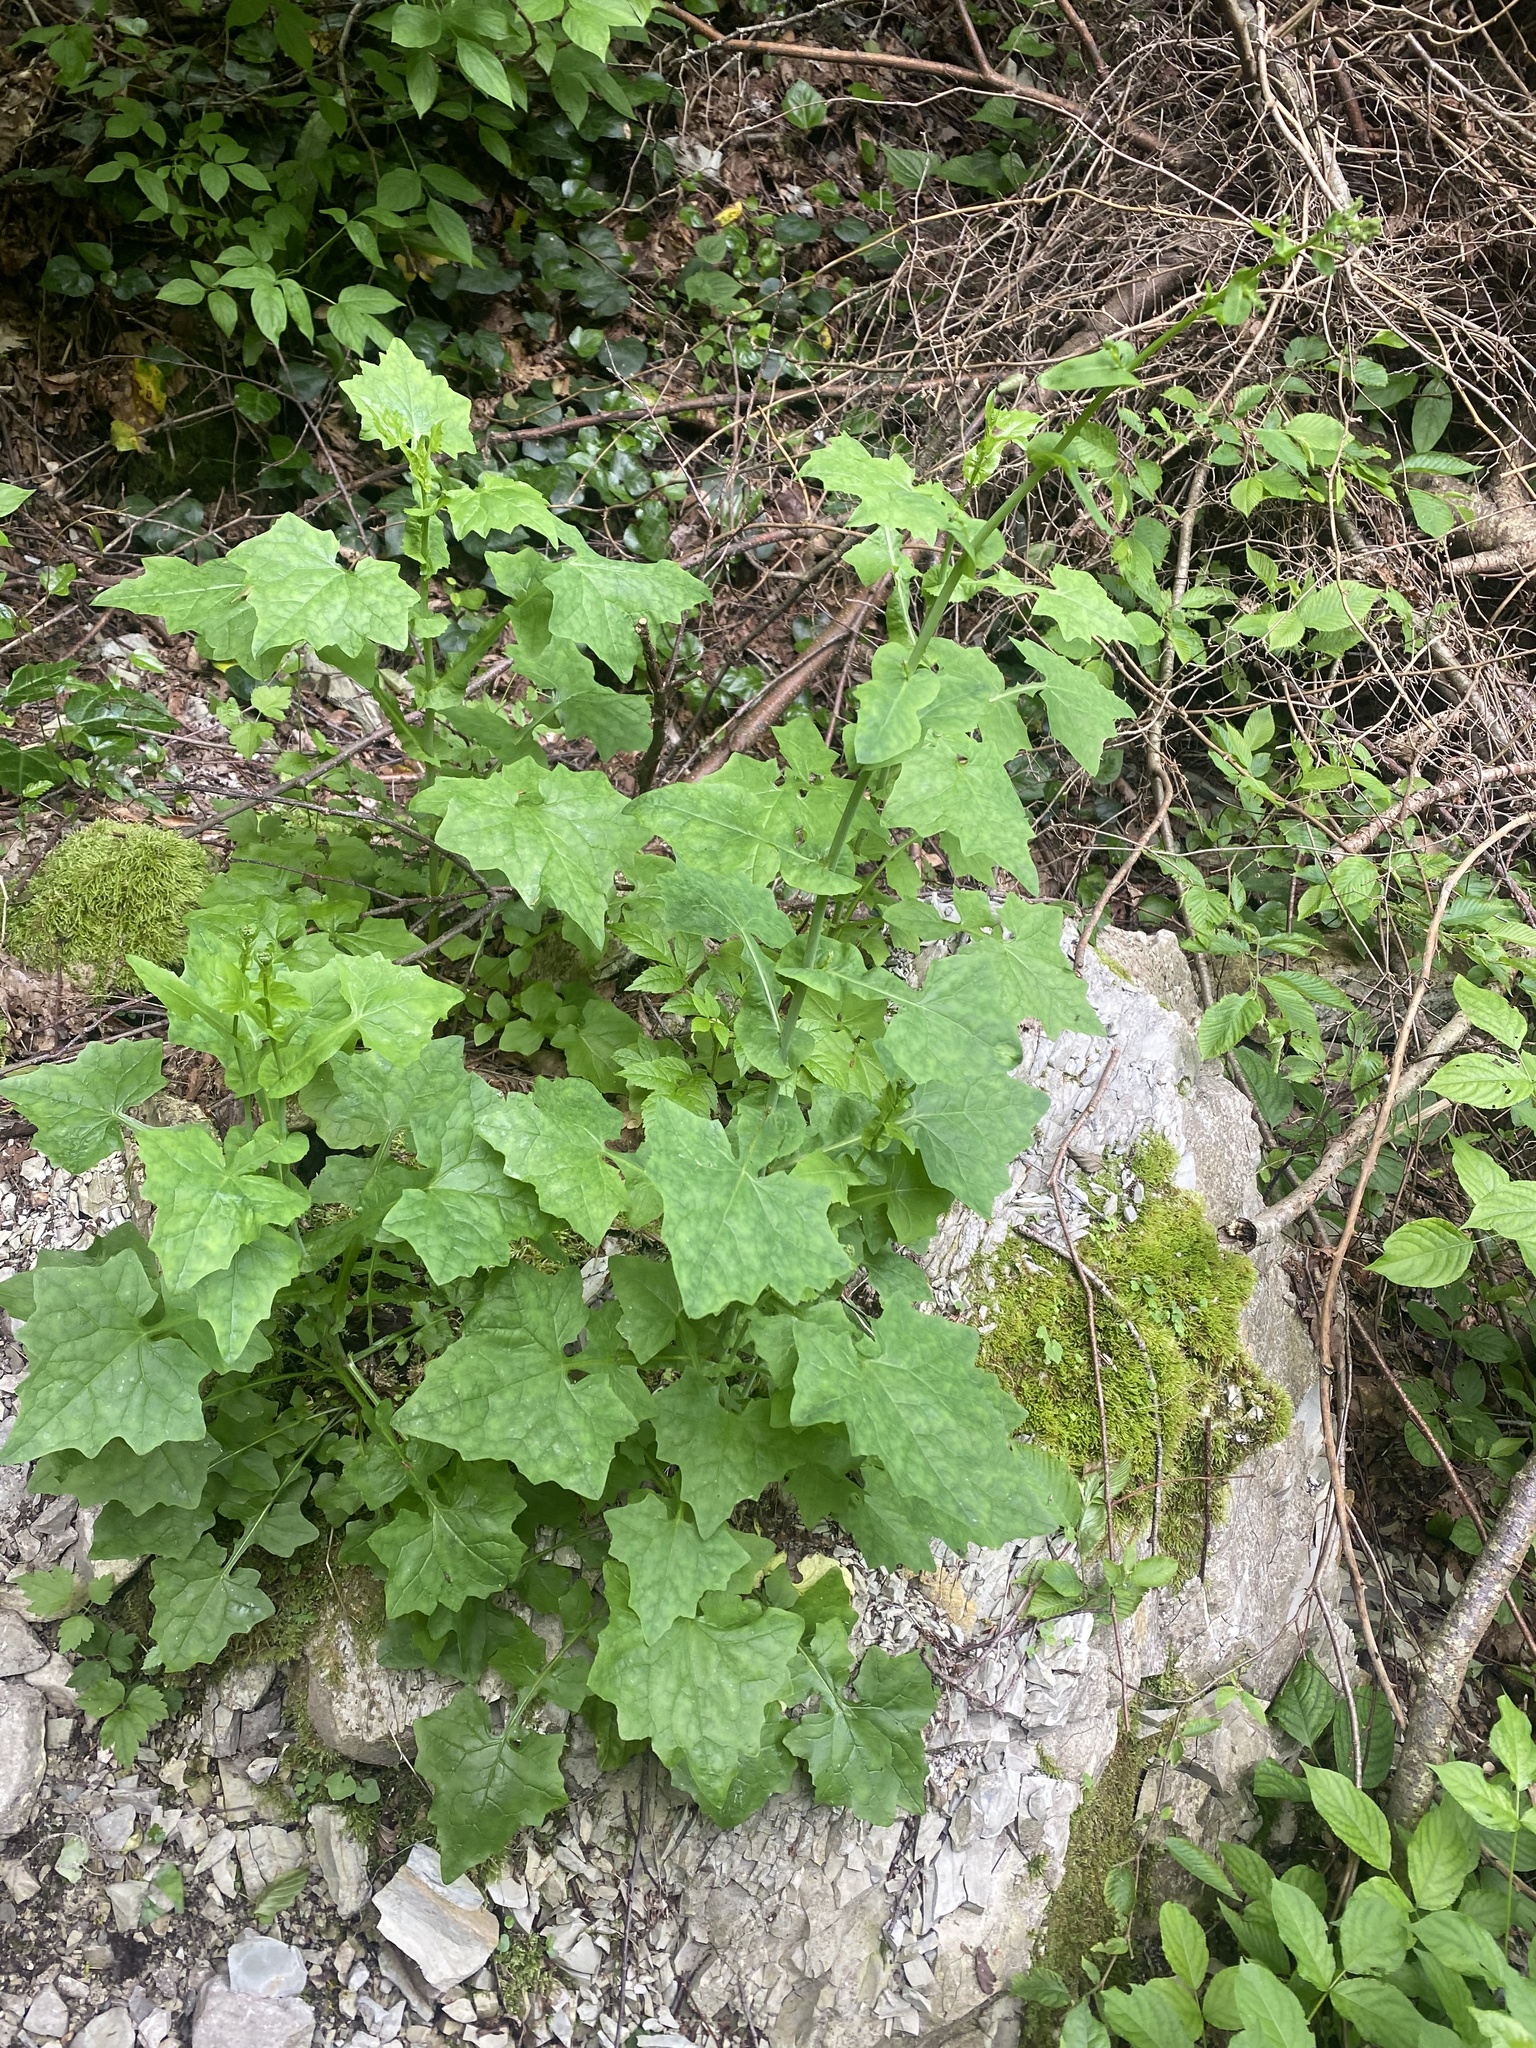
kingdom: Plantae
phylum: Tracheophyta
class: Magnoliopsida
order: Asterales
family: Asteraceae
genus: Mycelis
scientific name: Mycelis muralis
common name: Wall lettuce
